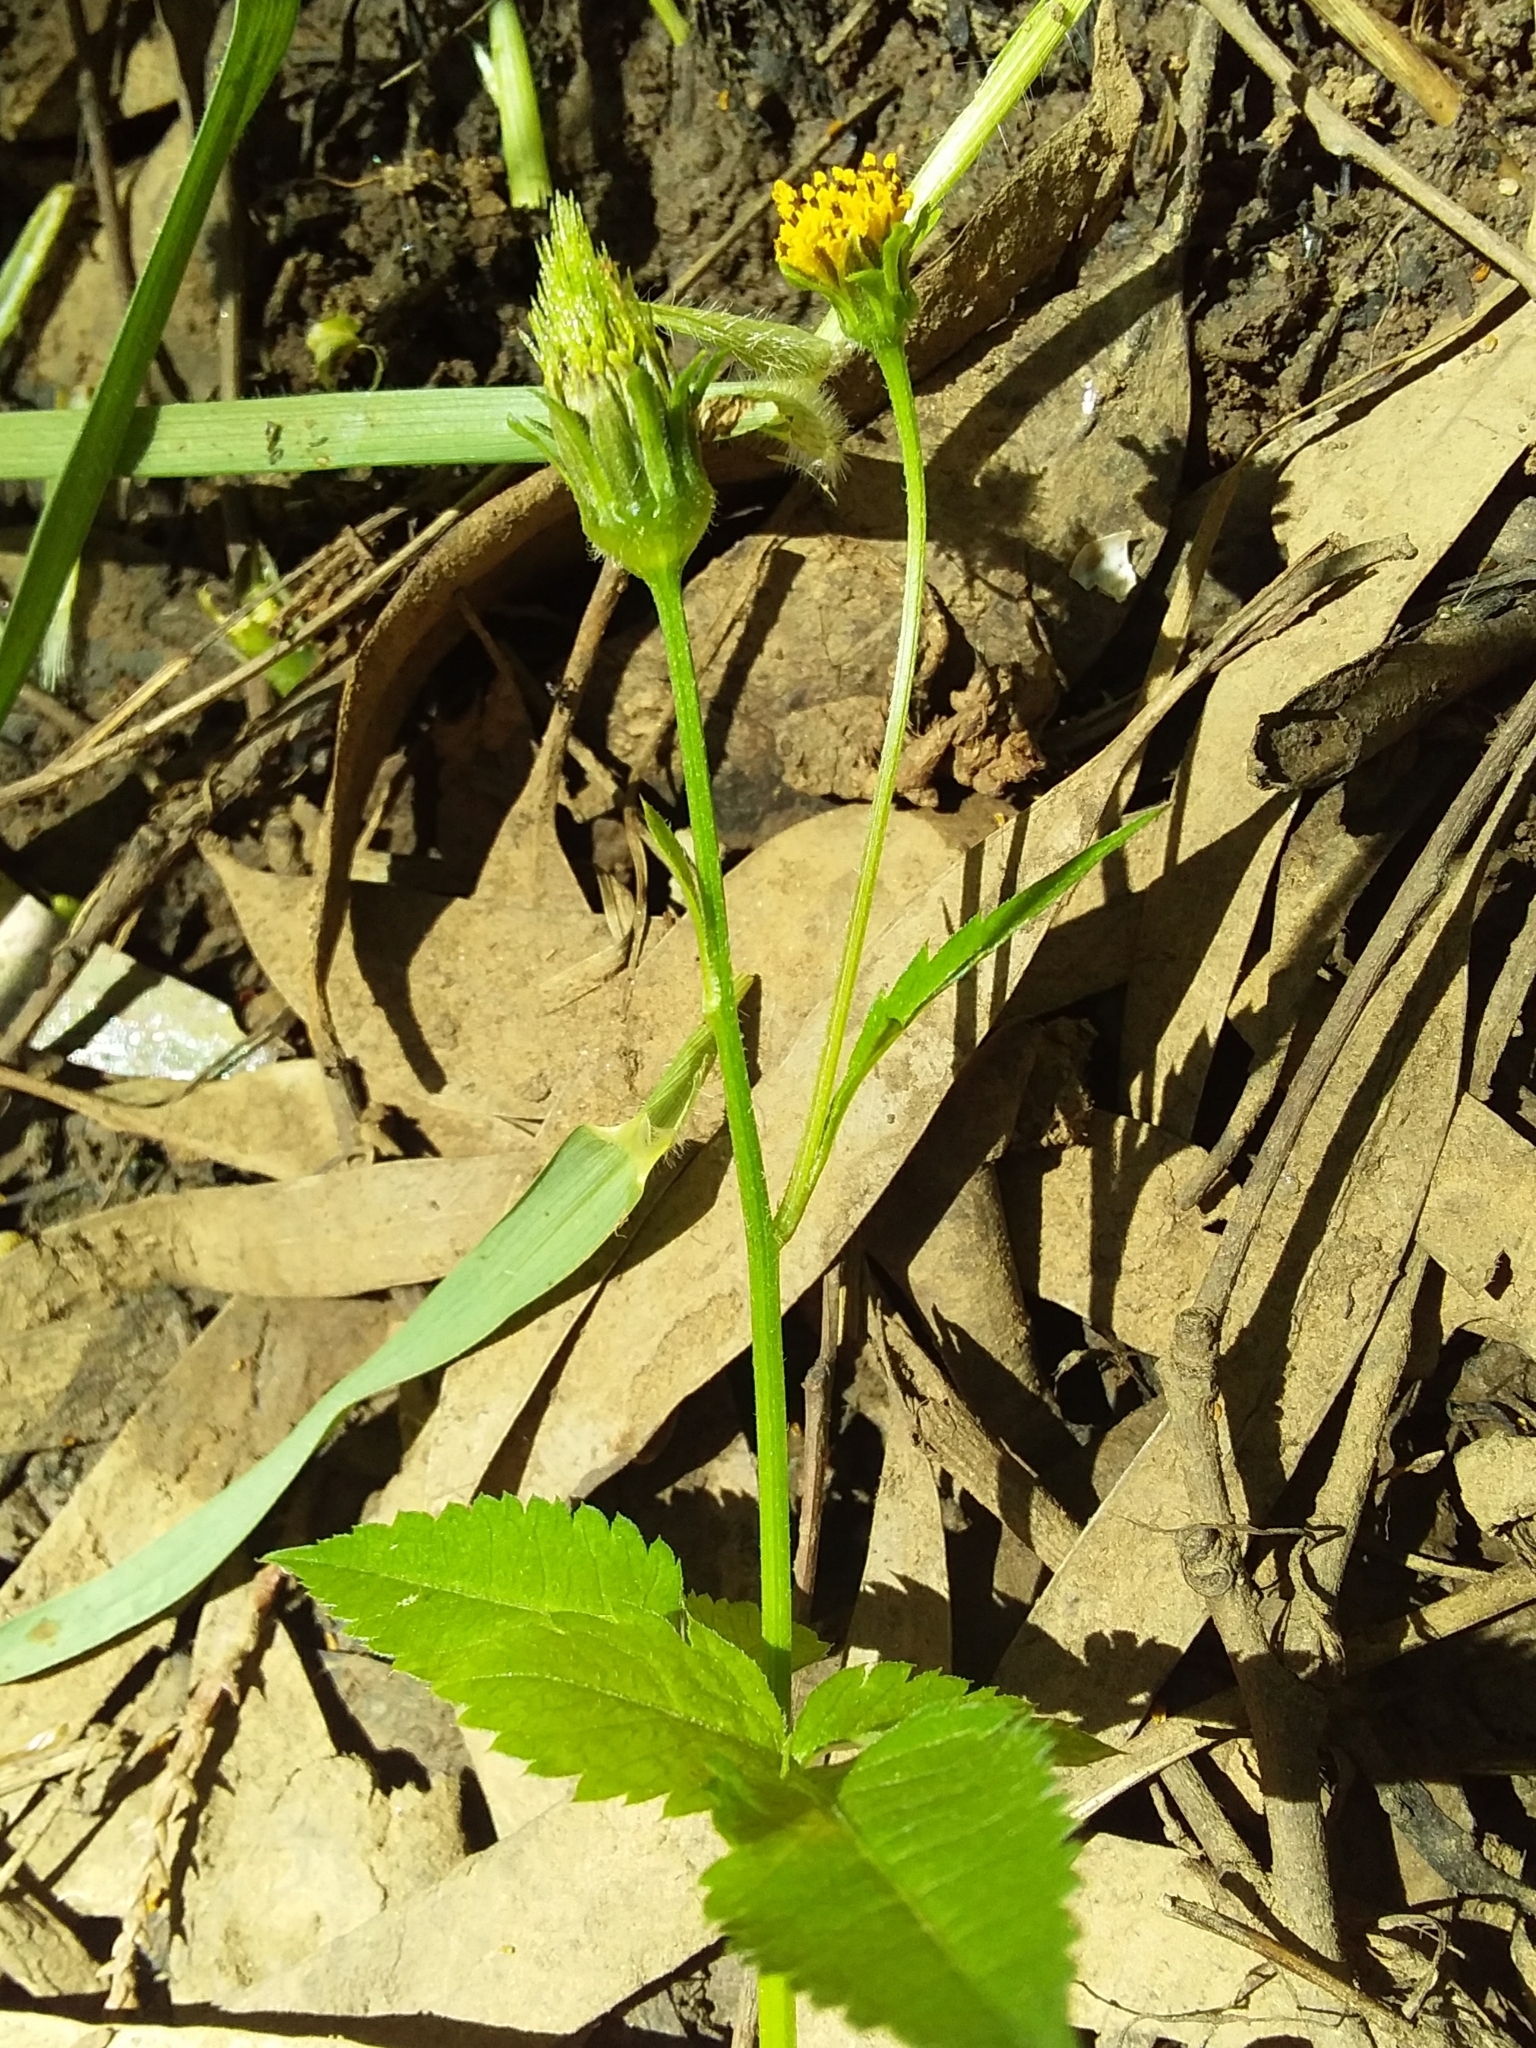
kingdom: Plantae
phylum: Tracheophyta
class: Magnoliopsida
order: Asterales
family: Asteraceae
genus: Bidens
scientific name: Bidens pilosa
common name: Black-jack
